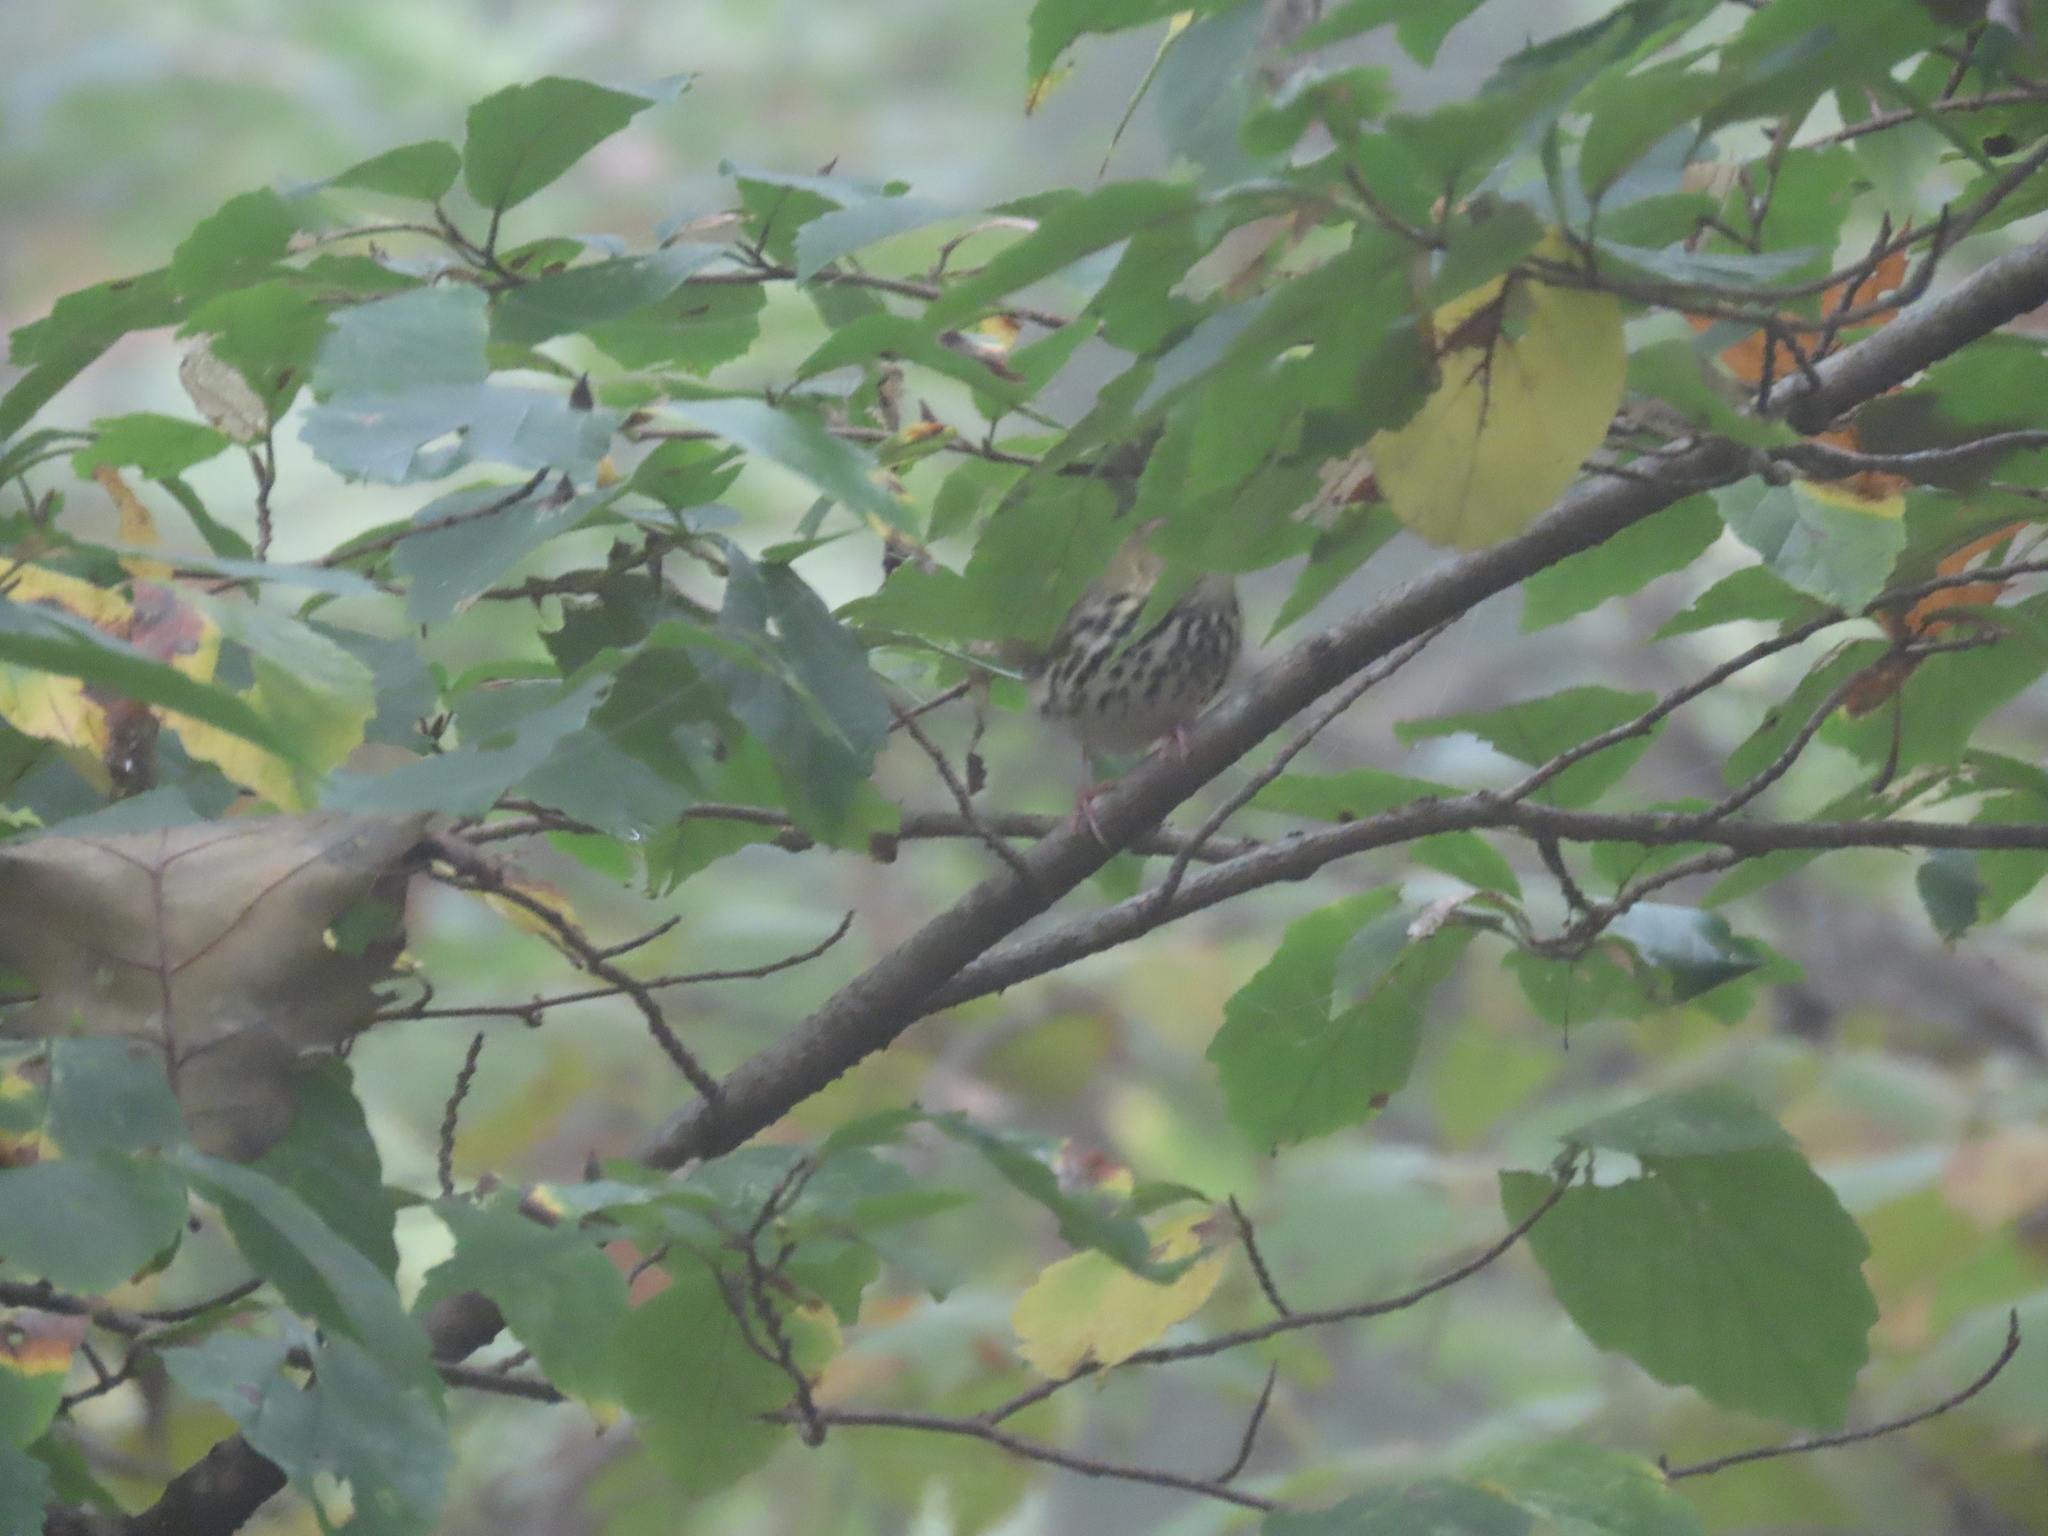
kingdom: Animalia
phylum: Chordata
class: Aves
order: Passeriformes
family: Parulidae
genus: Seiurus
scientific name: Seiurus aurocapilla
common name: Ovenbird
